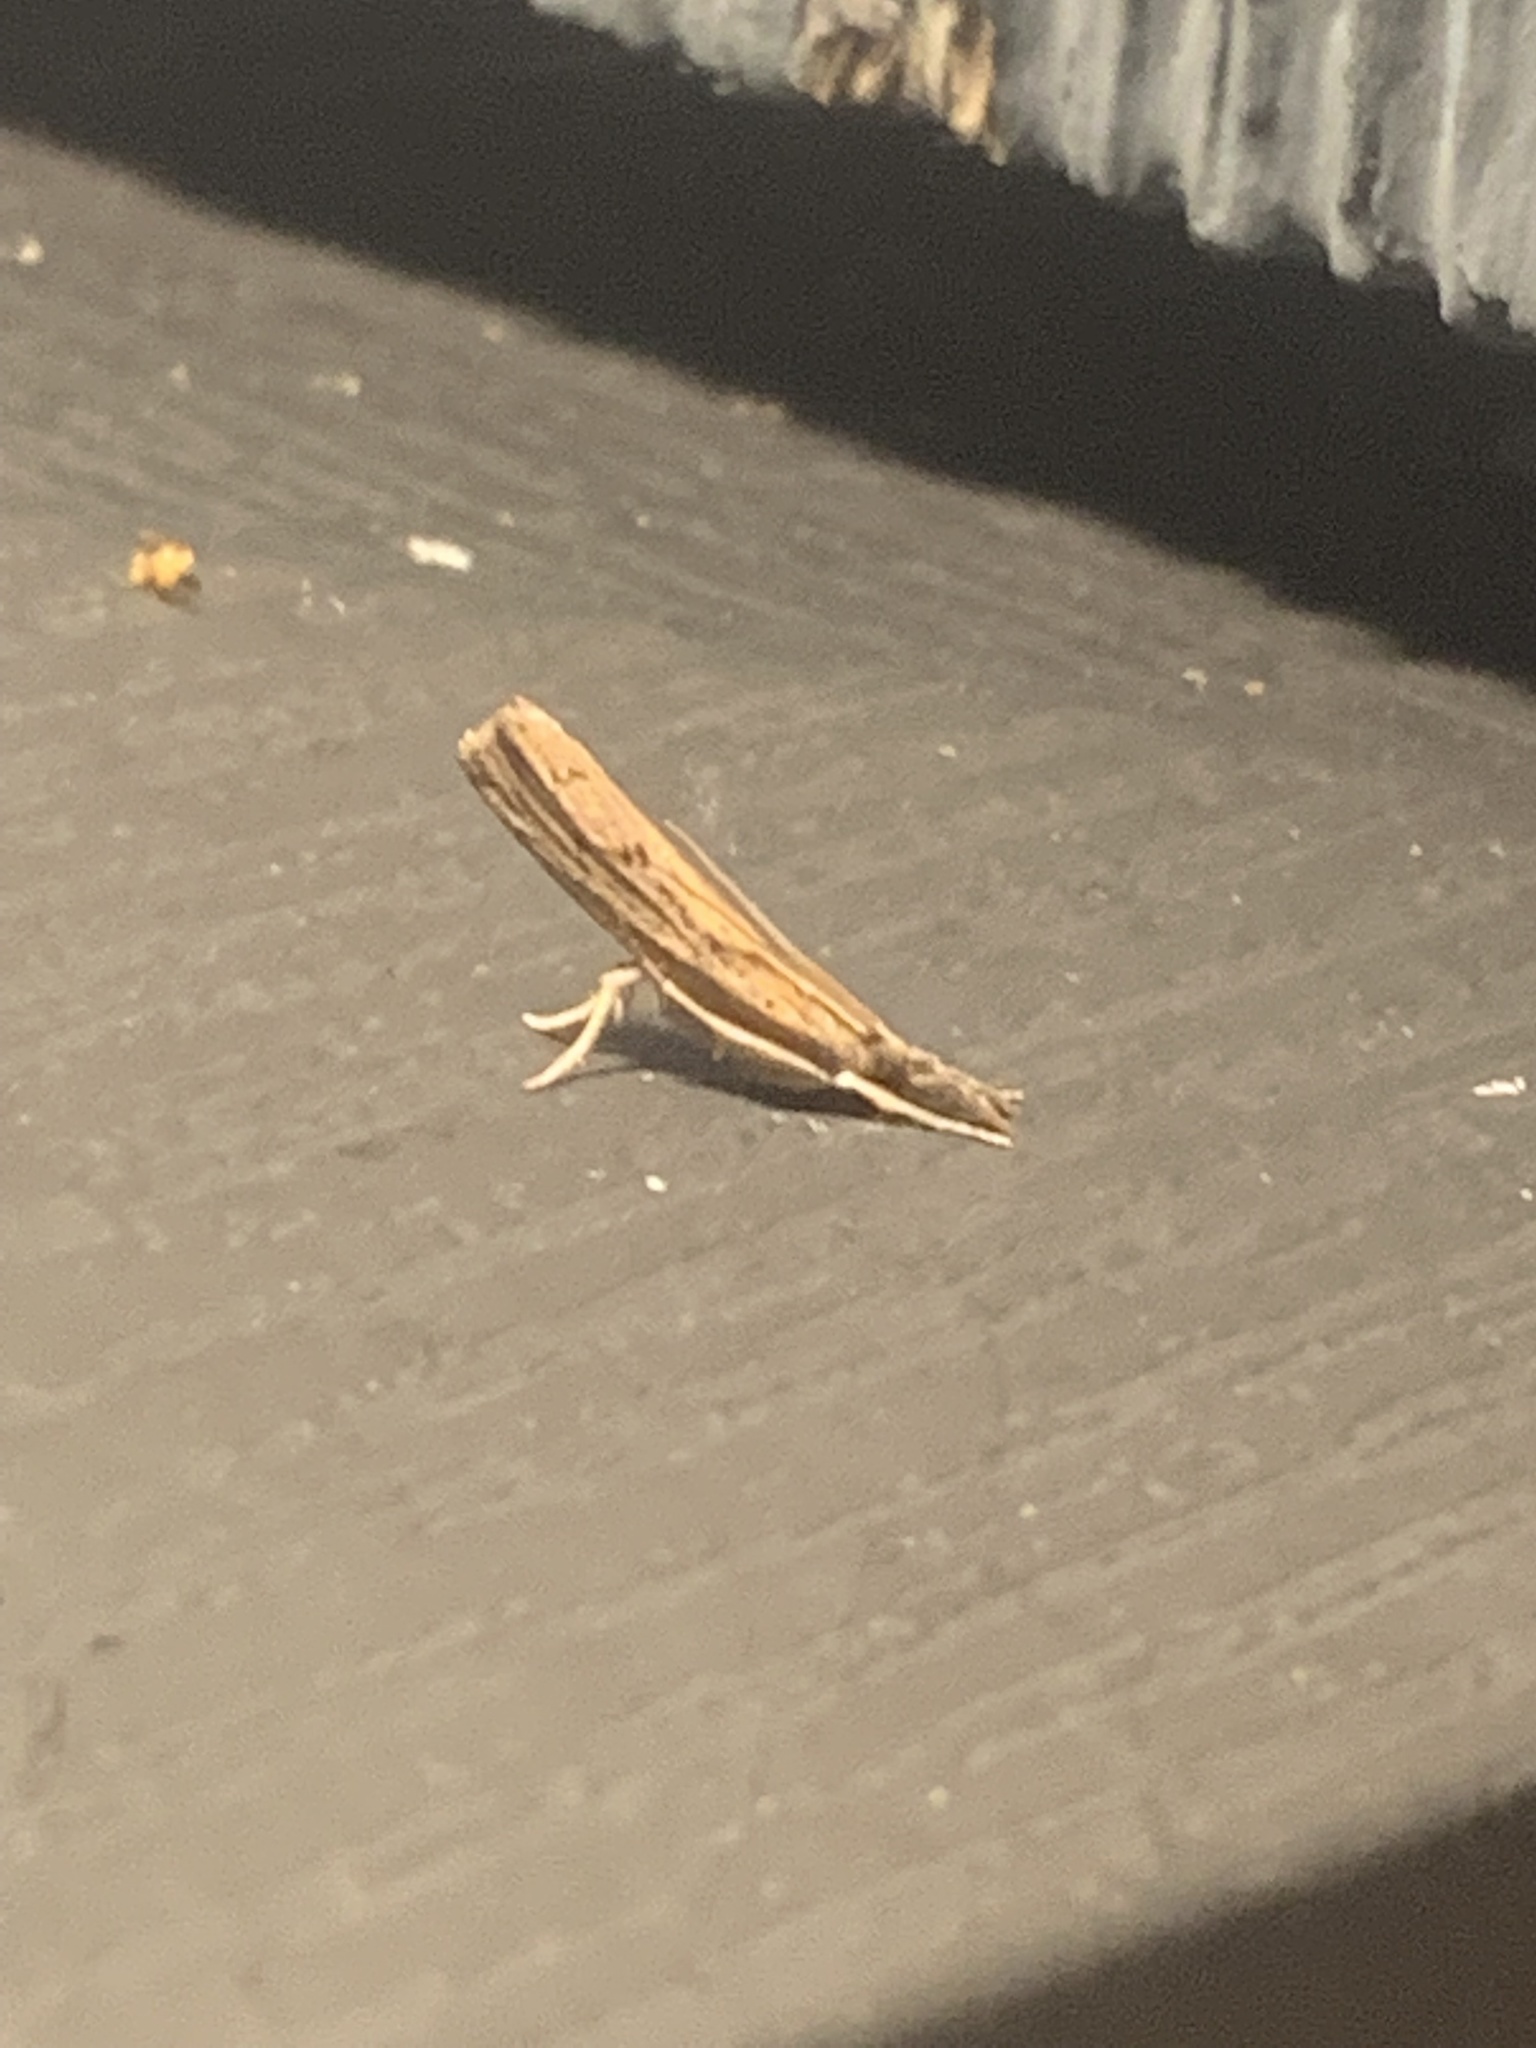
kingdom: Animalia
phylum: Arthropoda
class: Insecta
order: Lepidoptera
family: Crambidae
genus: Fissicrambus
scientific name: Fissicrambus
